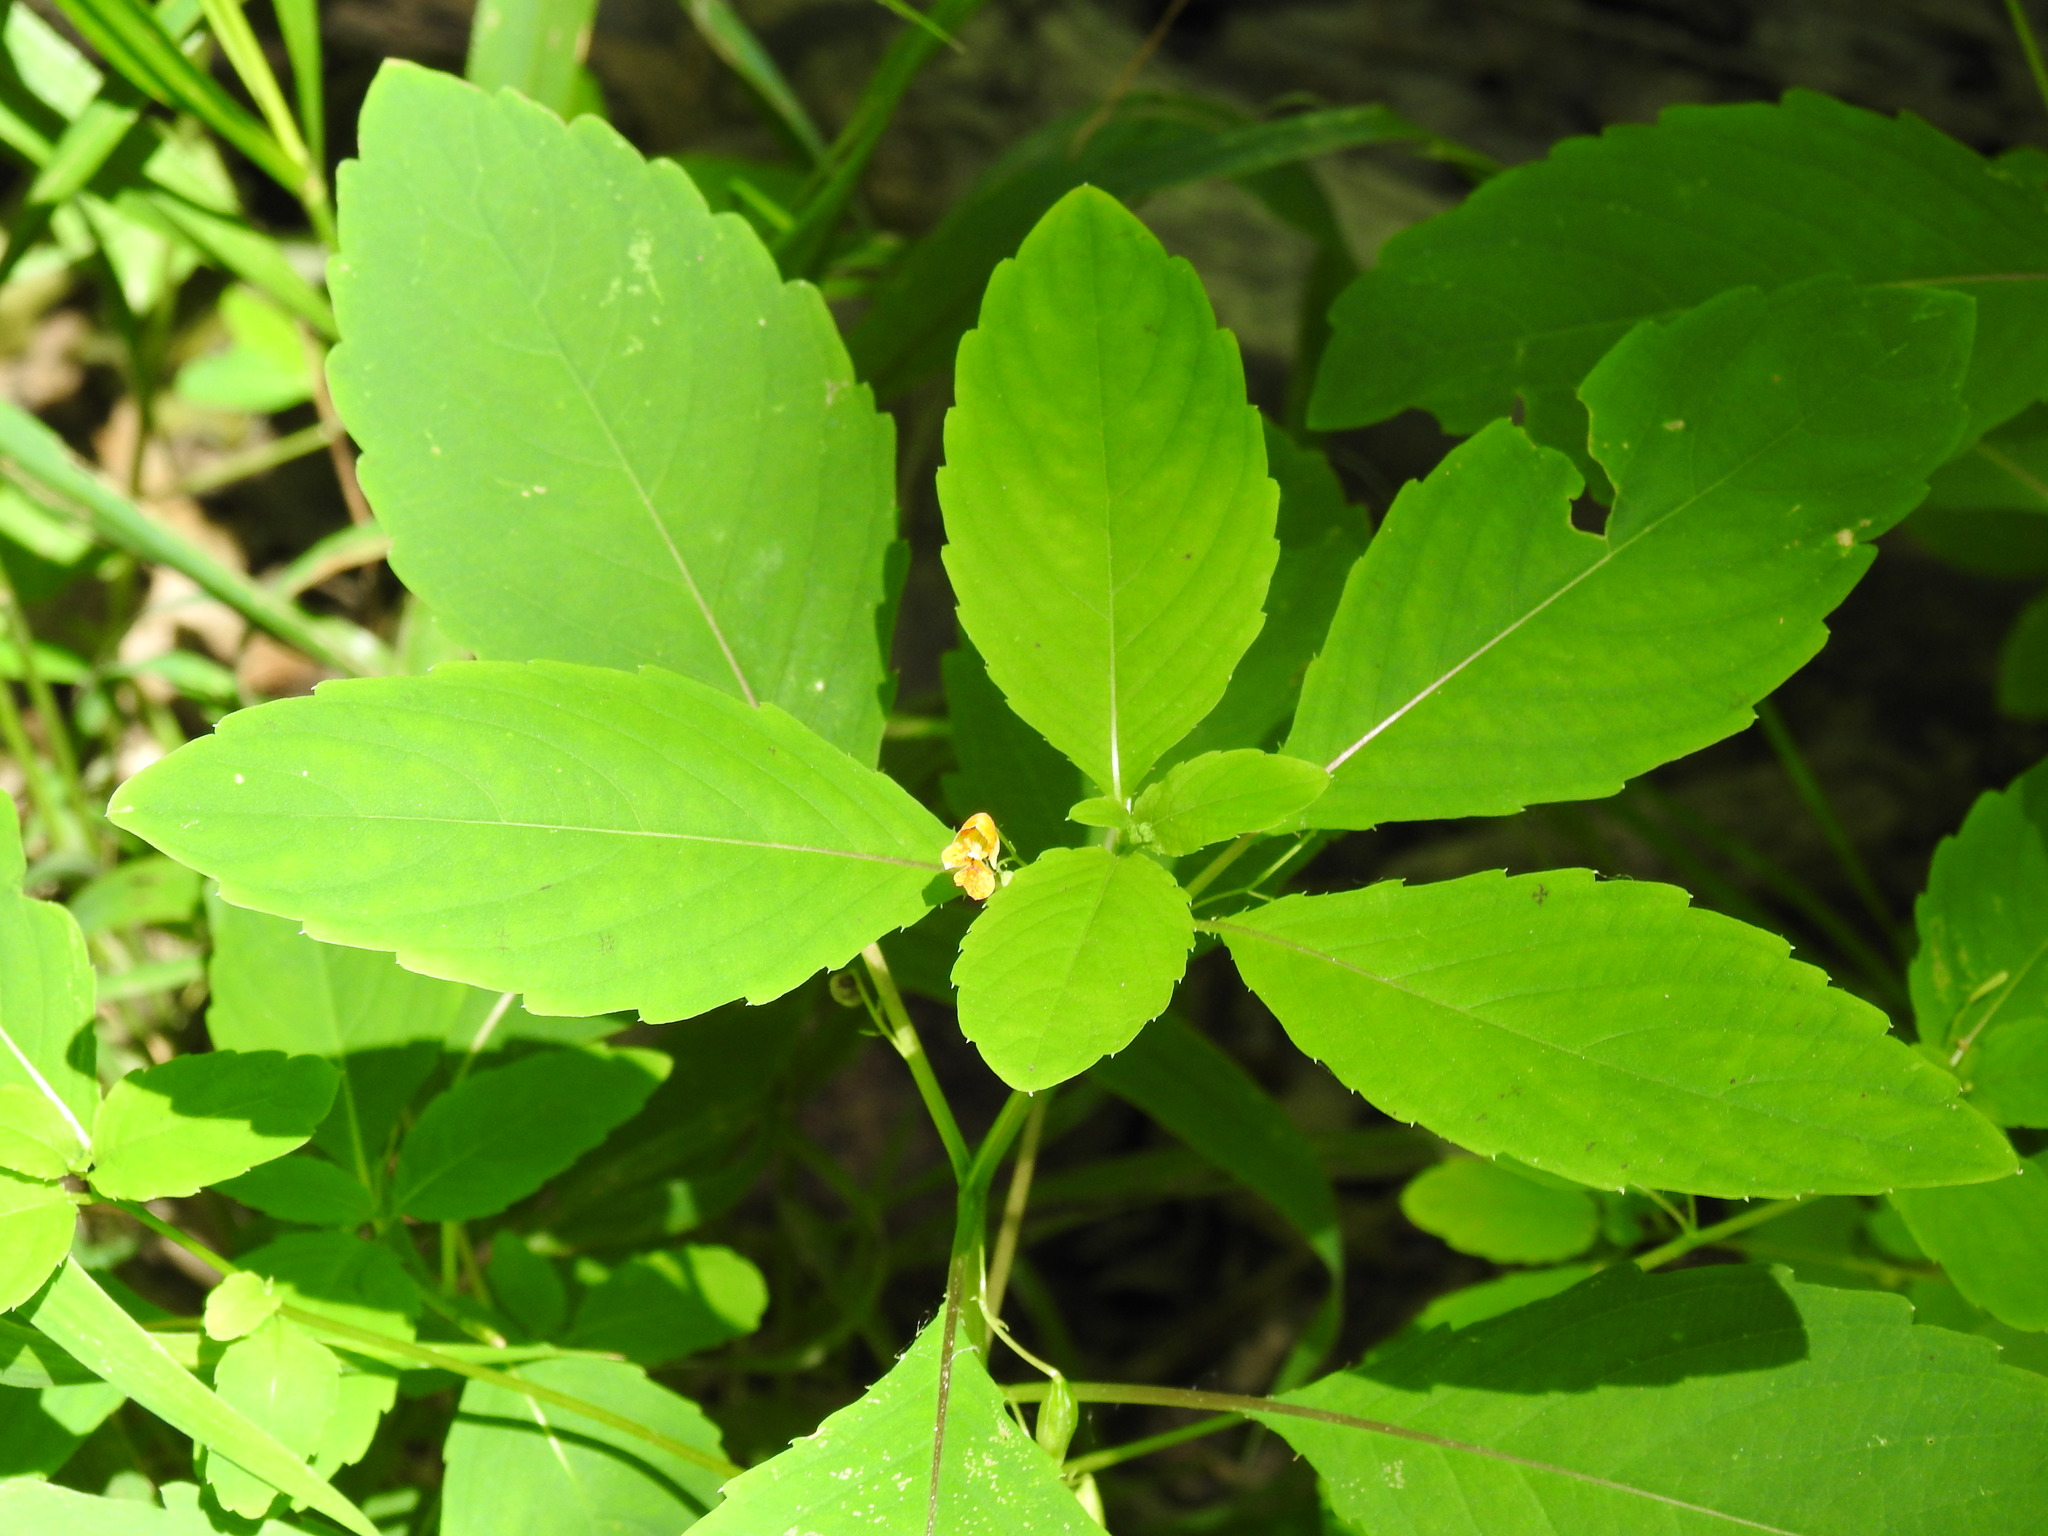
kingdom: Plantae
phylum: Tracheophyta
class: Magnoliopsida
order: Ericales
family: Balsaminaceae
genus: Impatiens
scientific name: Impatiens capensis
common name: Orange balsam
